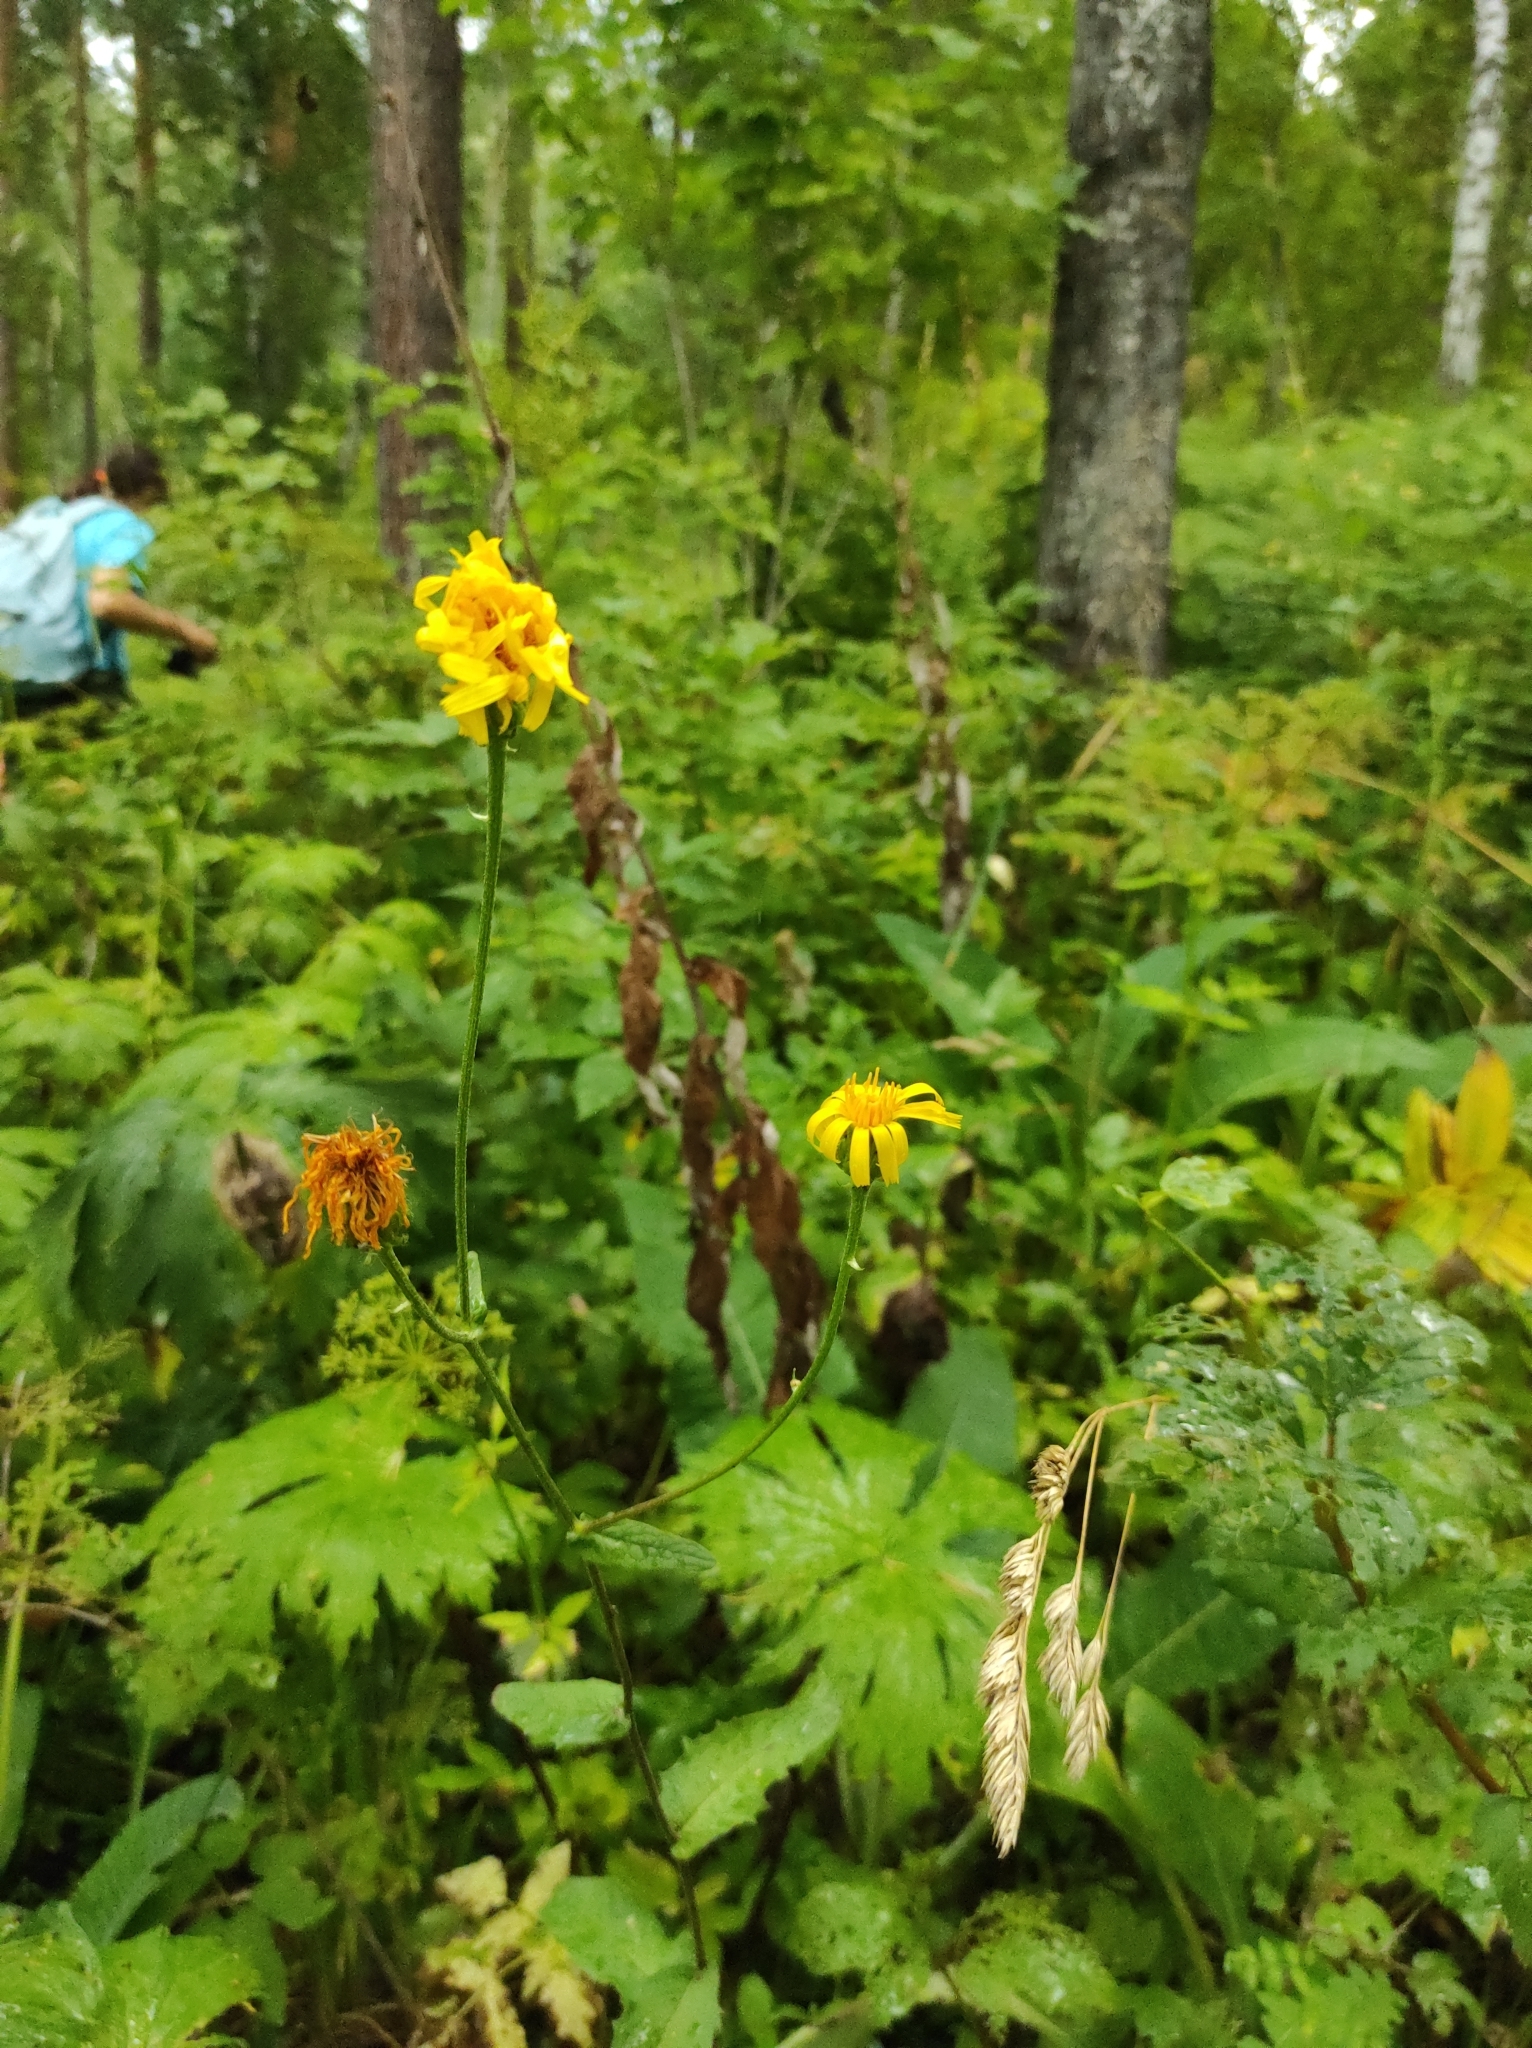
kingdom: Plantae
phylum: Tracheophyta
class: Magnoliopsida
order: Asterales
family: Asteraceae
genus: Crepis
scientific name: Crepis sibirica
